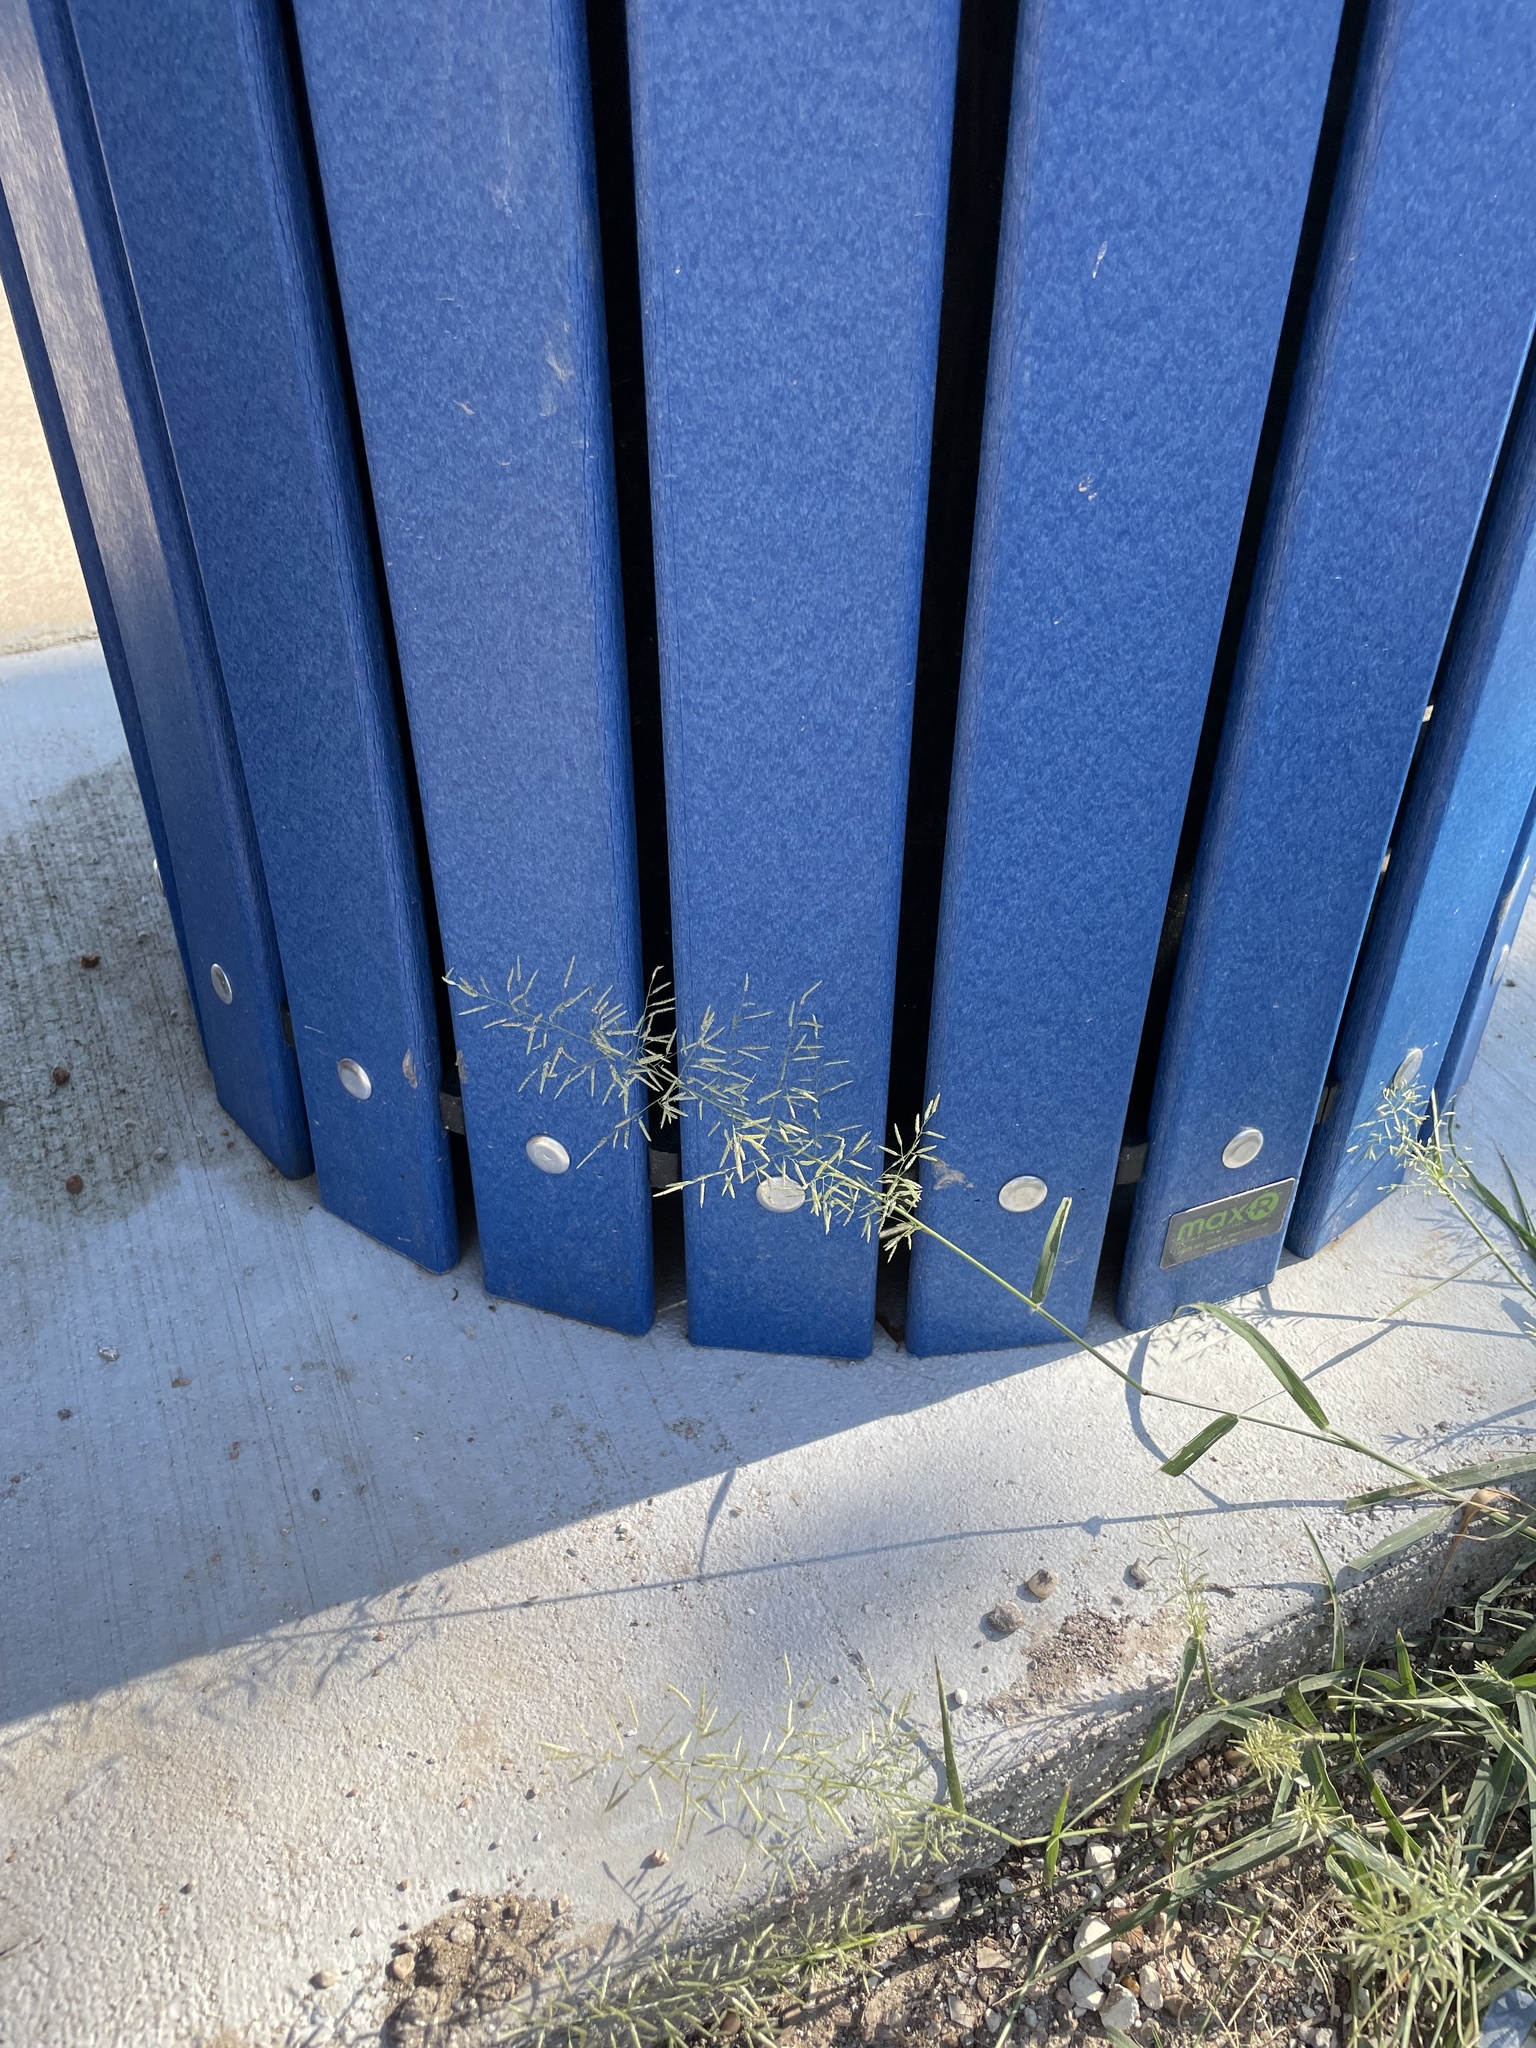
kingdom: Plantae
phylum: Tracheophyta
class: Liliopsida
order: Poales
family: Poaceae
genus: Eragrostis
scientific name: Eragrostis barrelieri
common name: Mediterranean lovegrass
